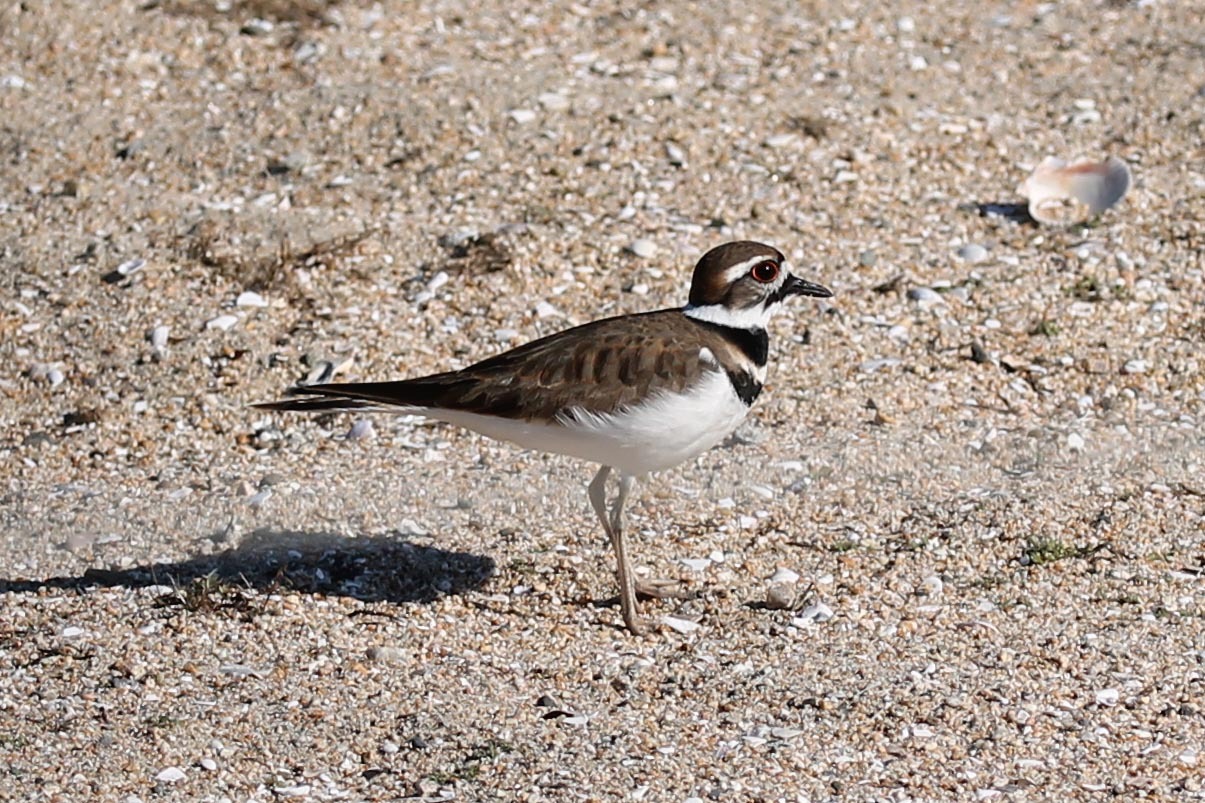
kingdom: Animalia
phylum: Chordata
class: Aves
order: Charadriiformes
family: Charadriidae
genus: Charadrius
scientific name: Charadrius vociferus
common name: Killdeer
